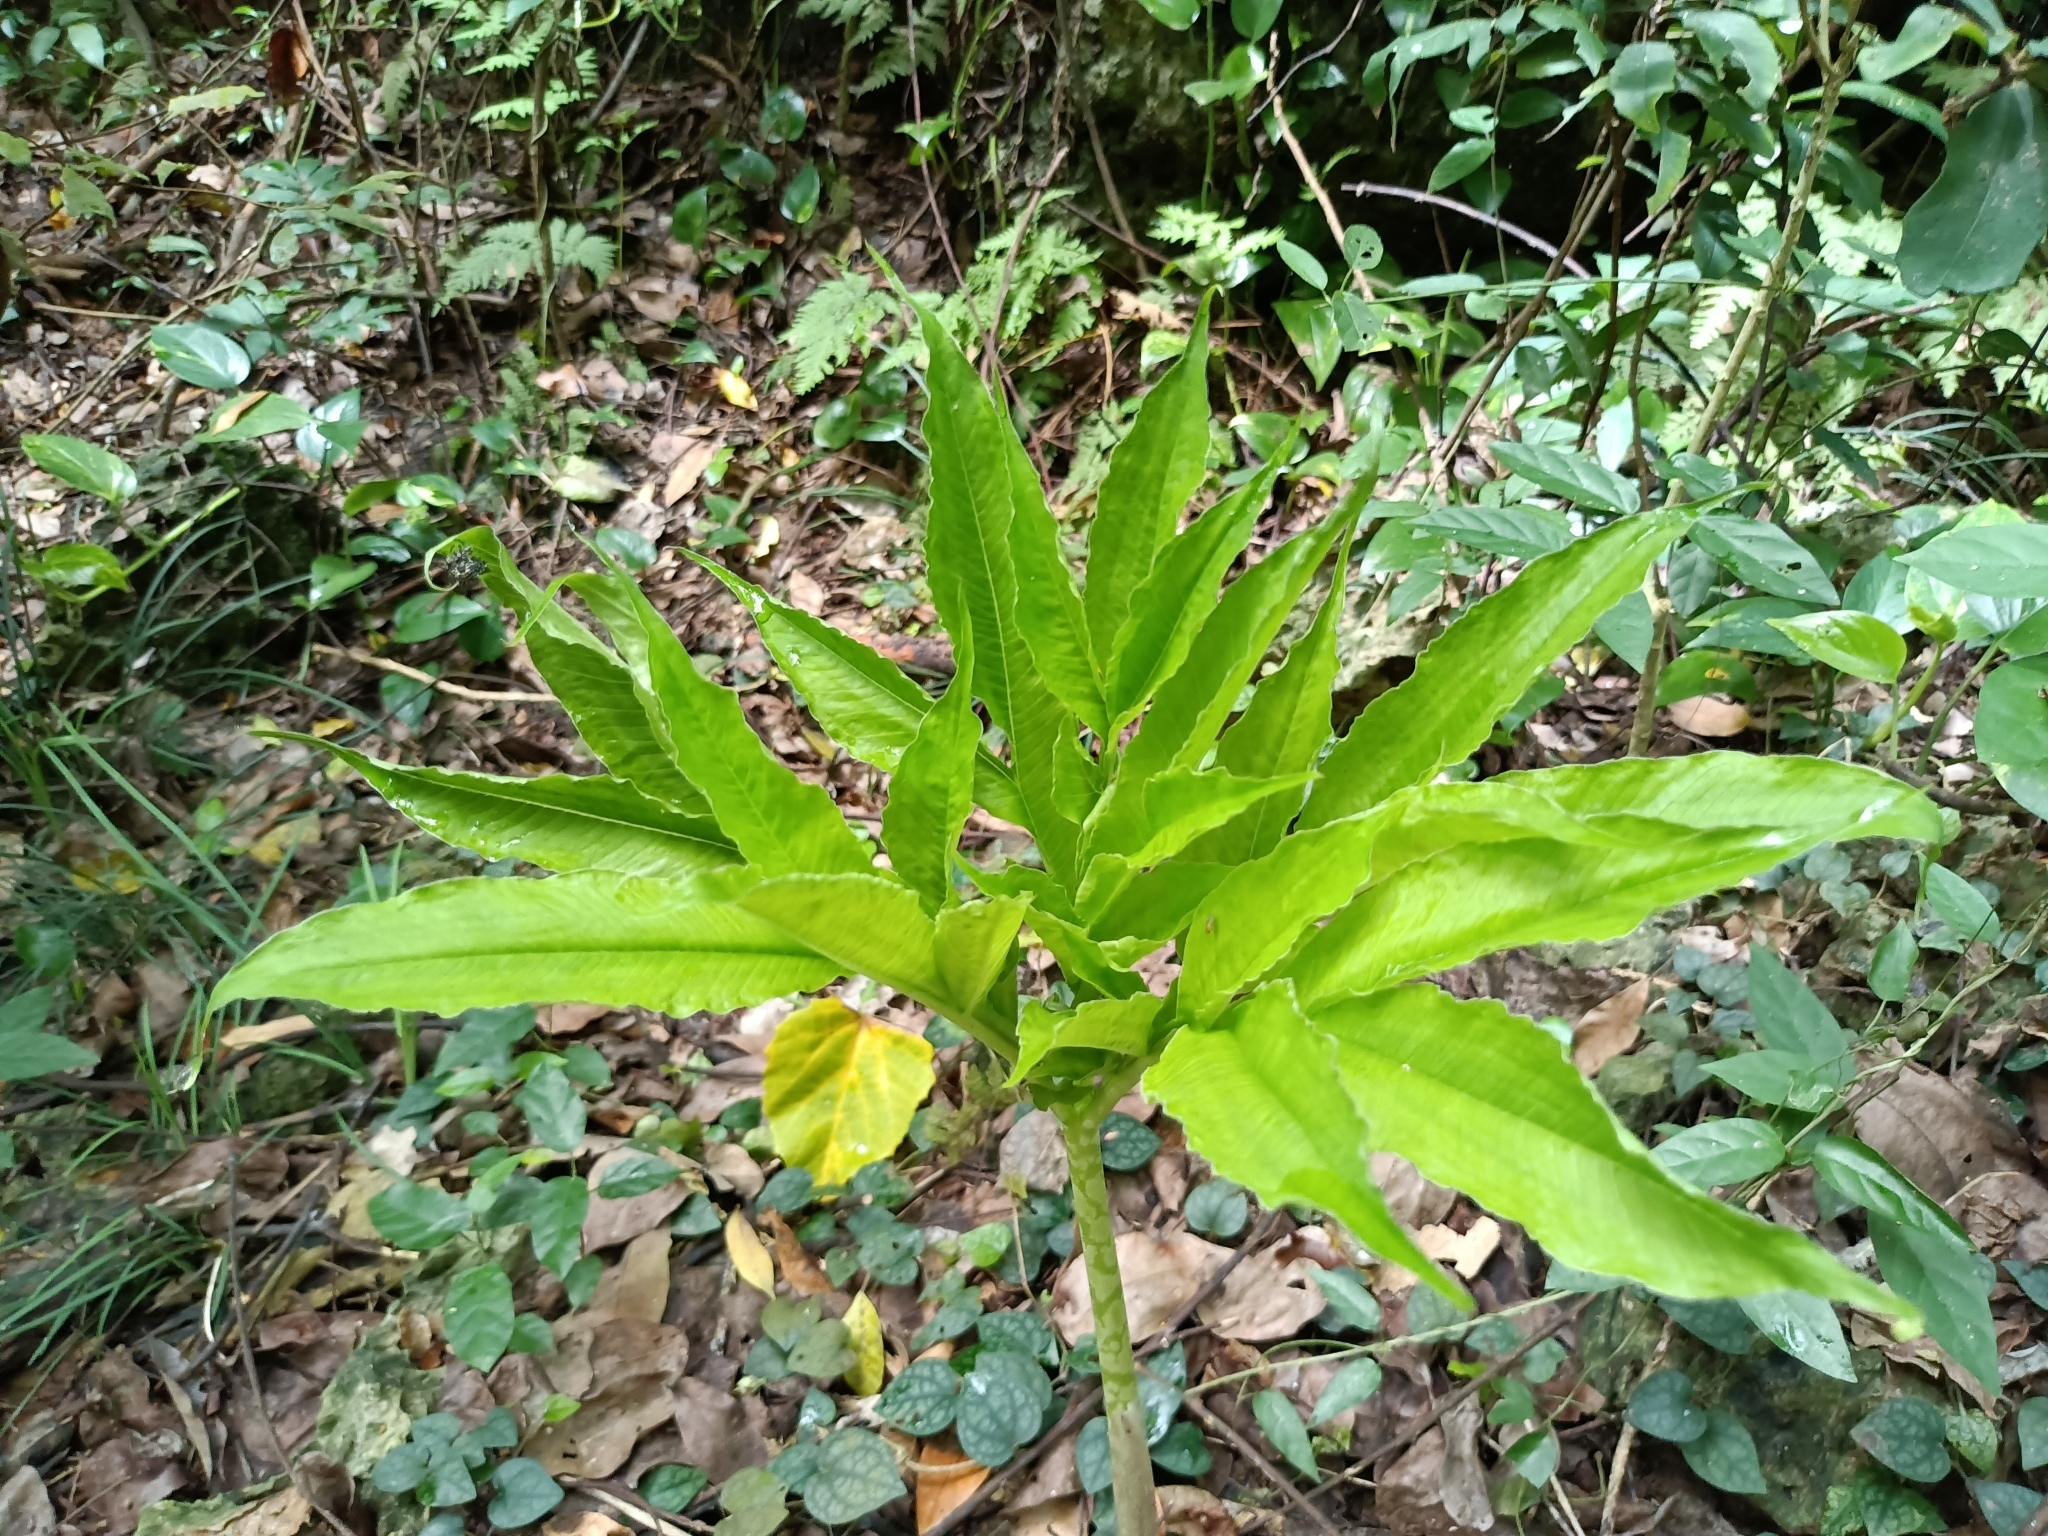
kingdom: Plantae
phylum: Tracheophyta
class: Liliopsida
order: Alismatales
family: Araceae
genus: Amorphophallus
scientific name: Amorphophallus henryi
